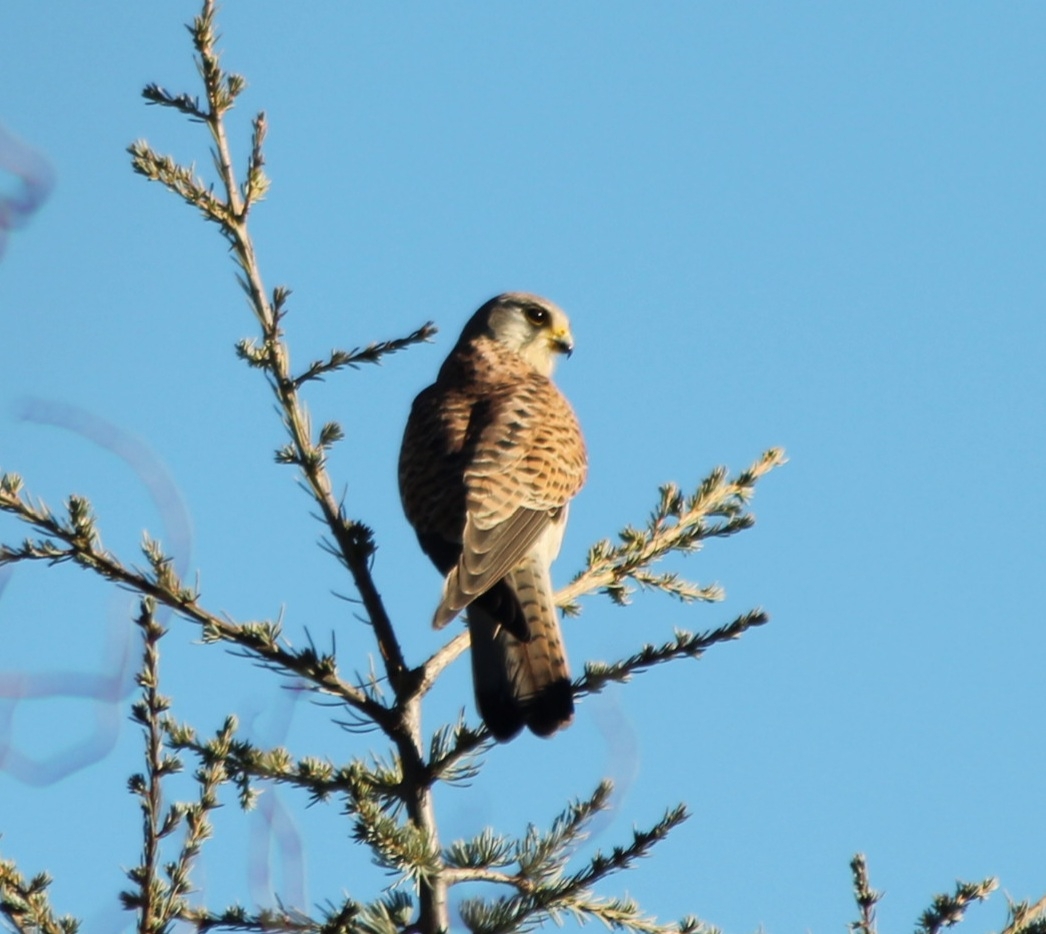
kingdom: Animalia
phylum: Chordata
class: Aves
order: Falconiformes
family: Falconidae
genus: Falco
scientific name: Falco tinnunculus
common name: Common kestrel
